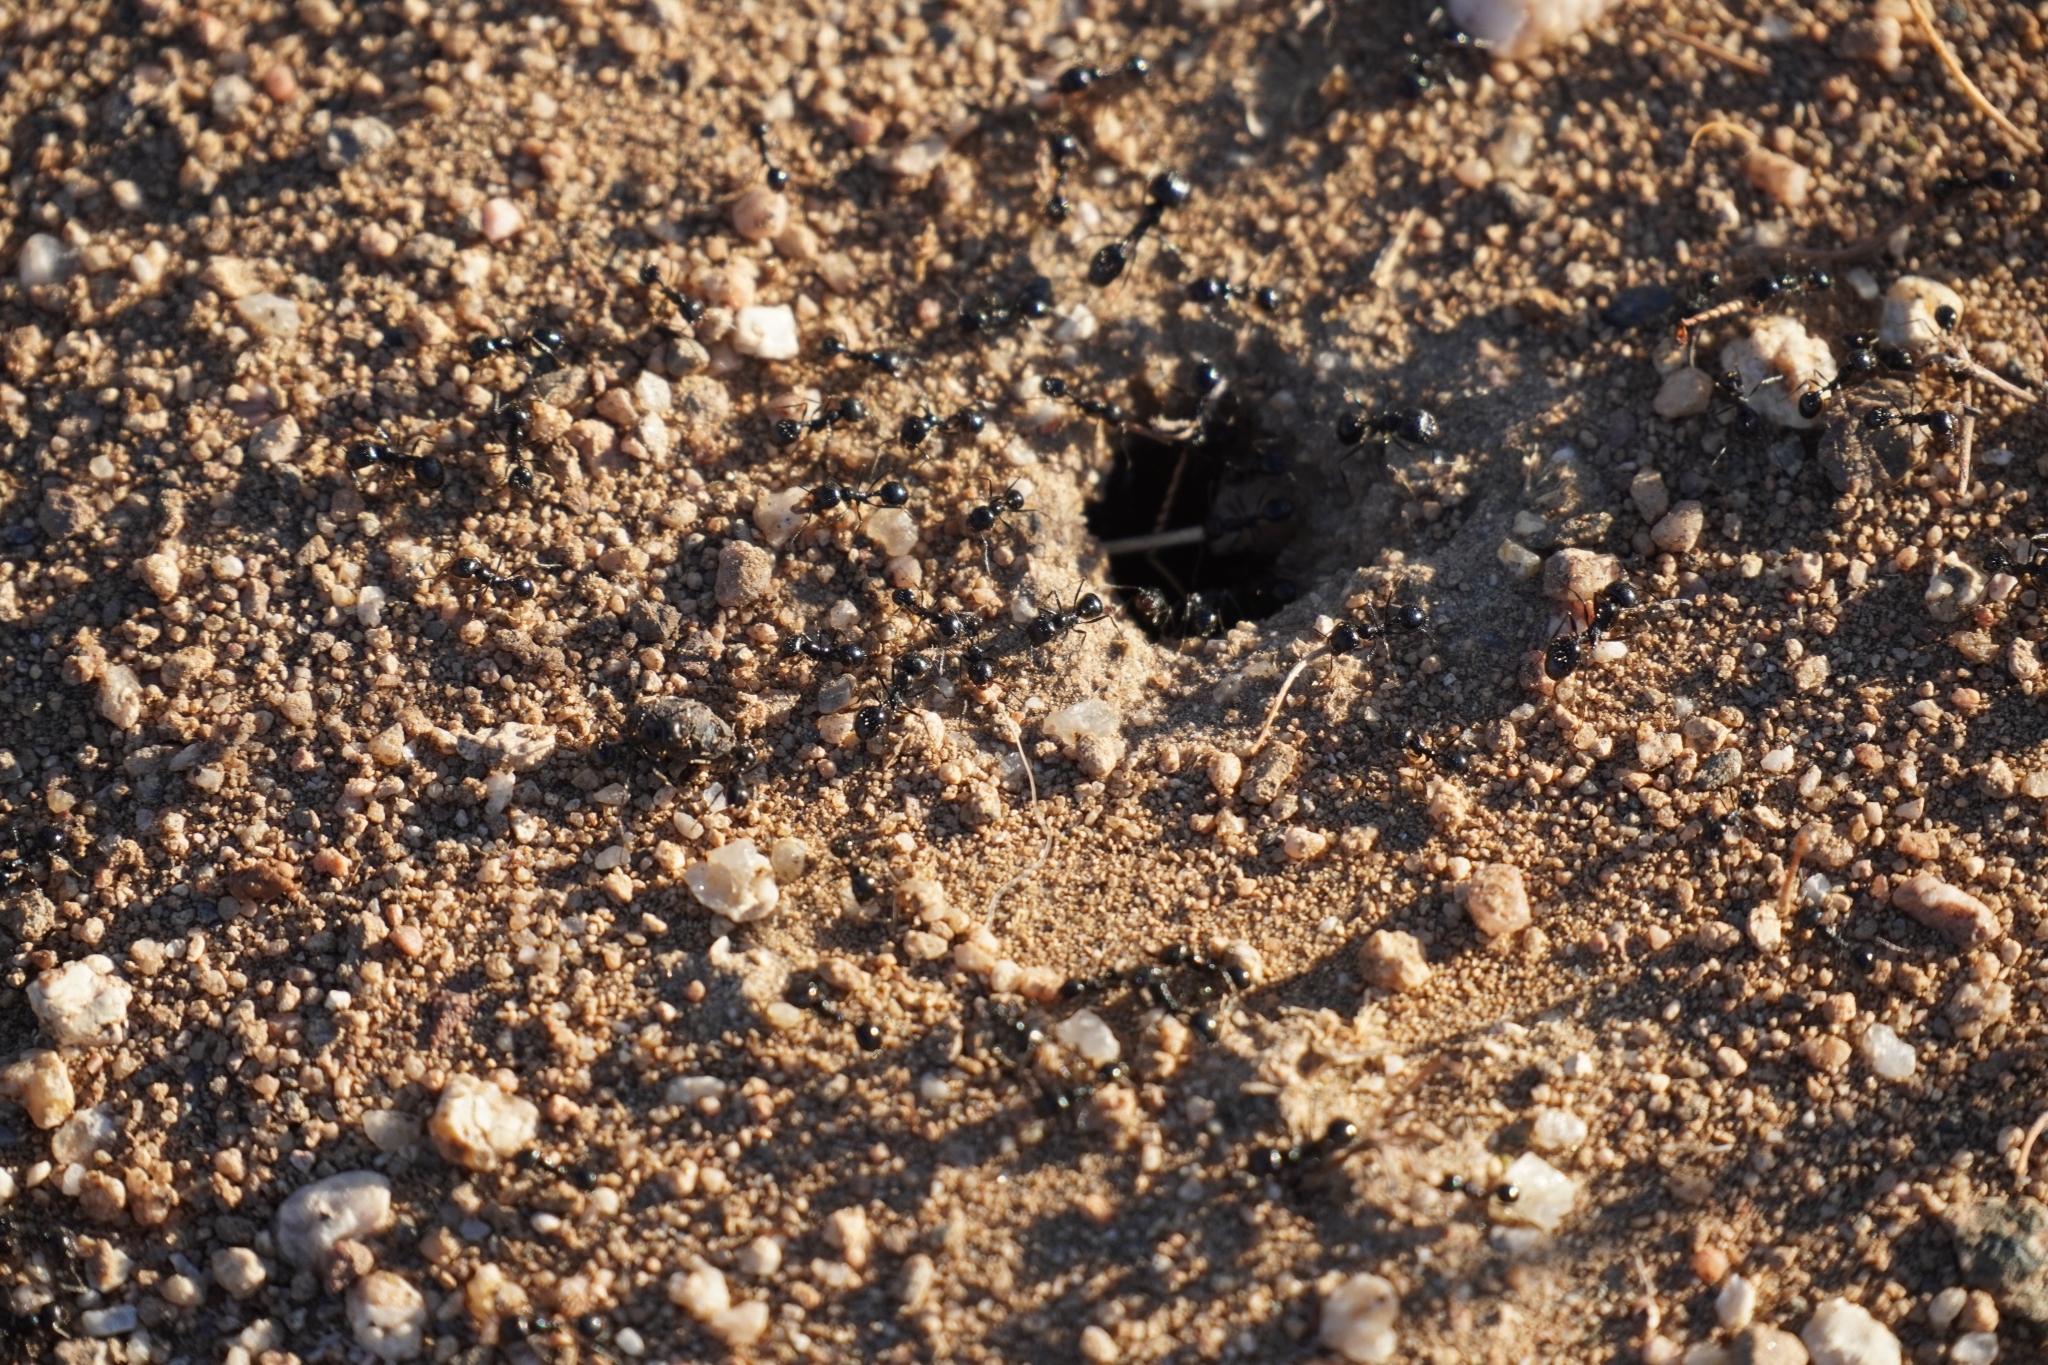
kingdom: Animalia
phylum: Arthropoda
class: Insecta
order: Hymenoptera
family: Formicidae
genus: Messor
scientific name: Messor pergandei
